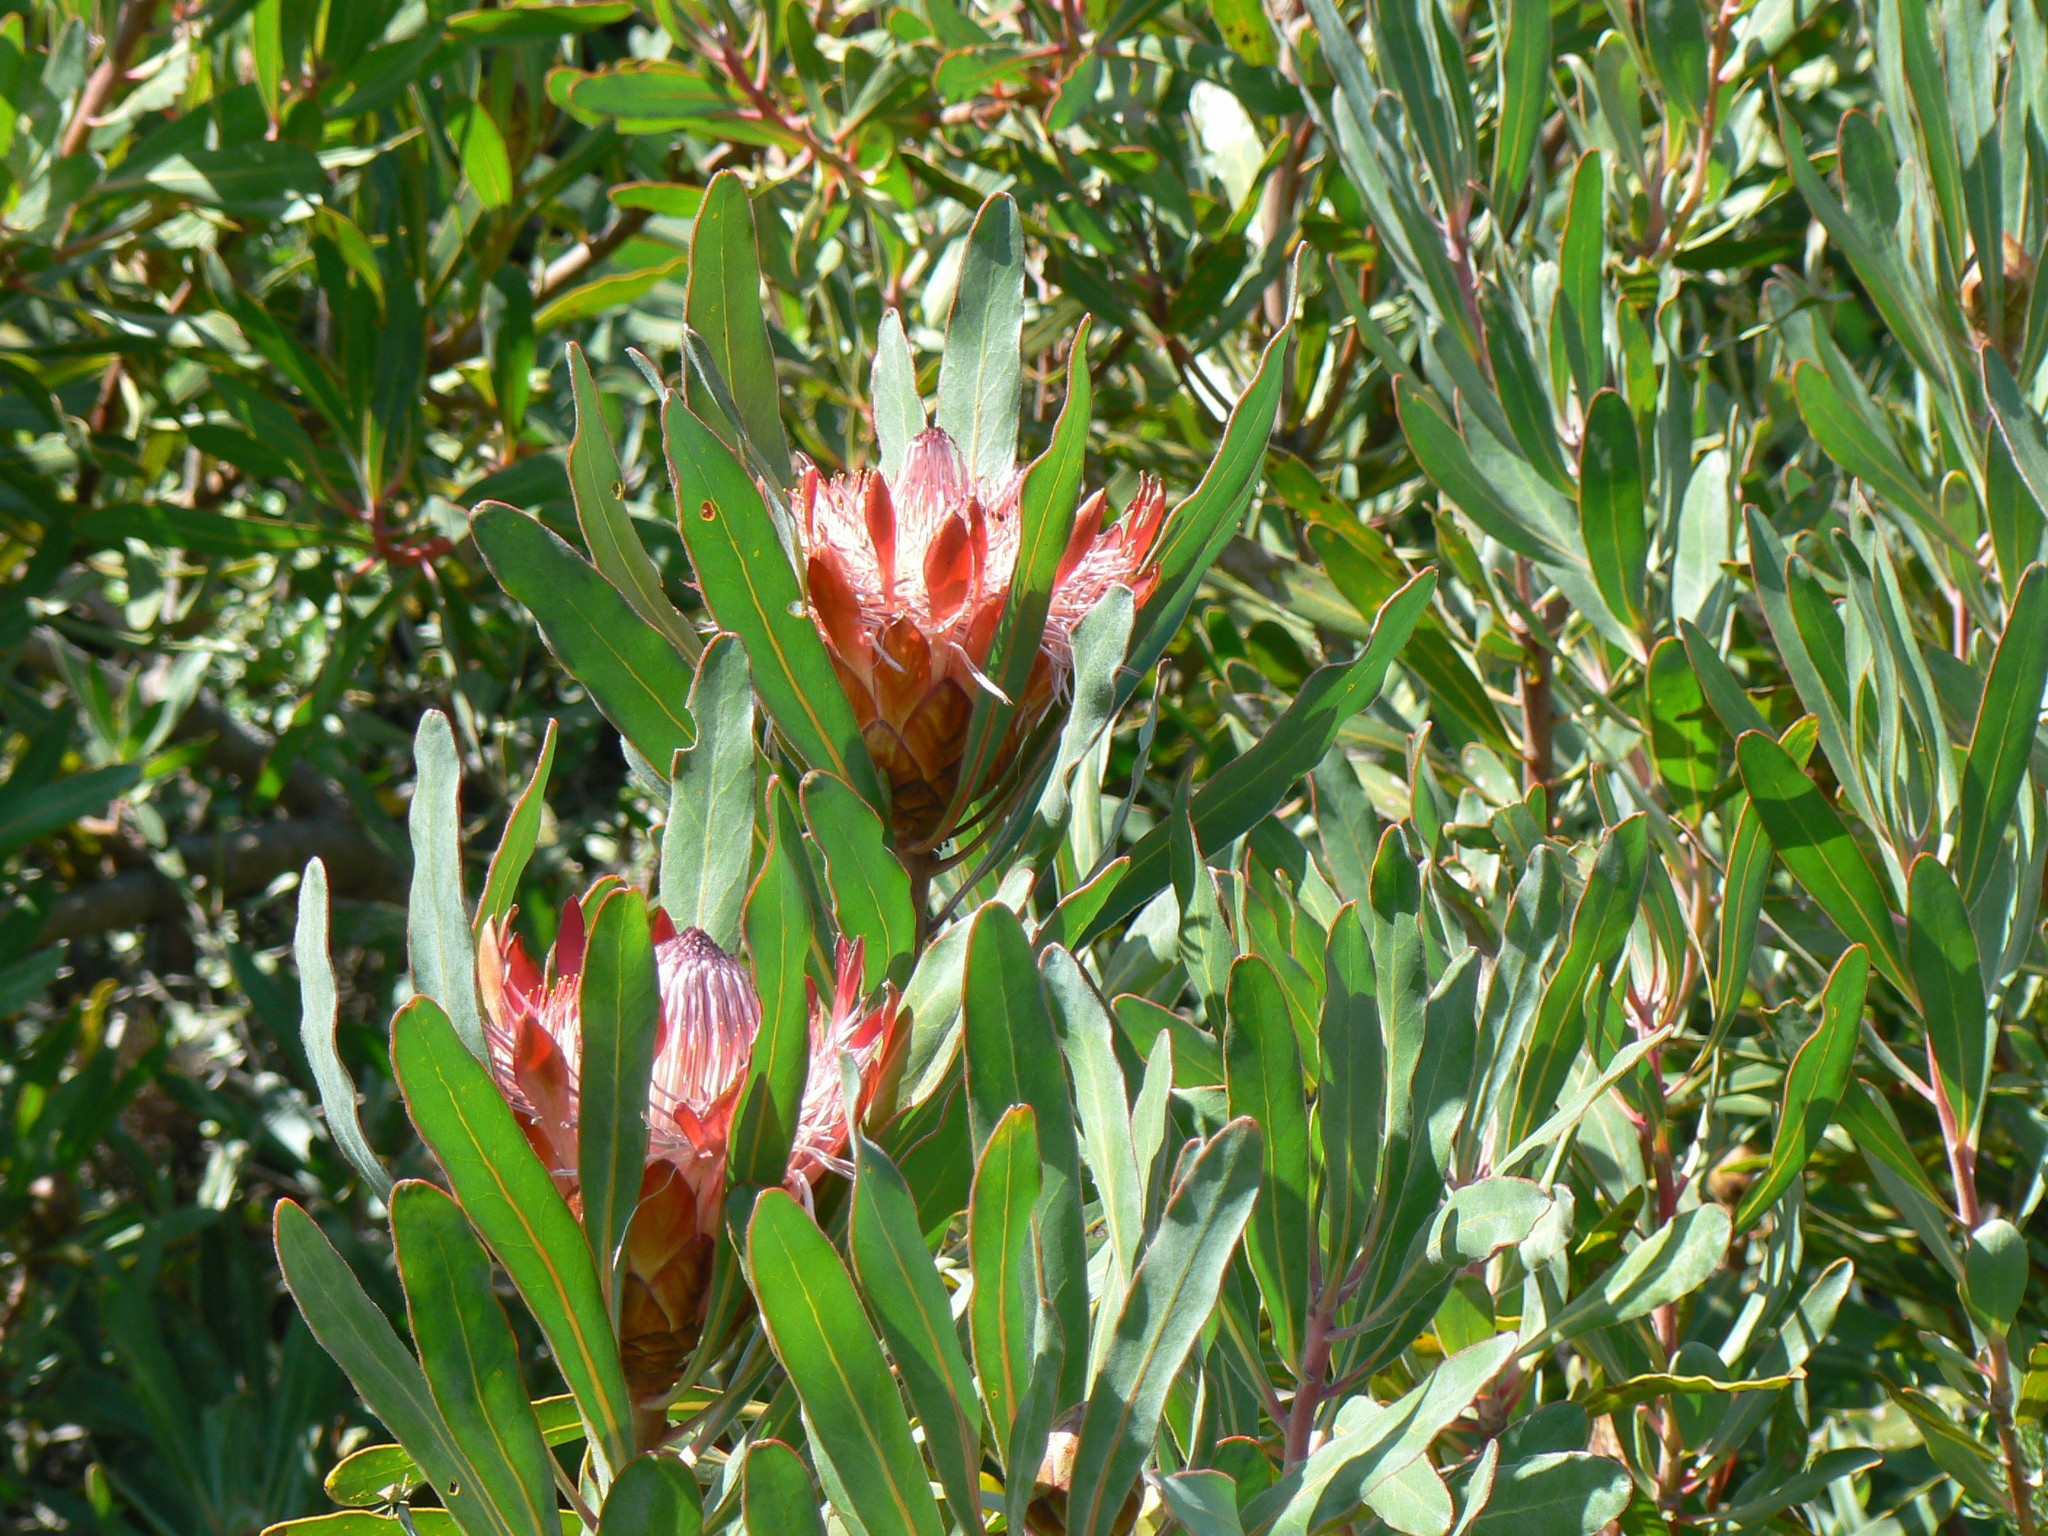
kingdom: Plantae
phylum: Tracheophyta
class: Magnoliopsida
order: Proteales
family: Proteaceae
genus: Protea
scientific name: Protea susannae
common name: Foetid-leaf sugarbush
